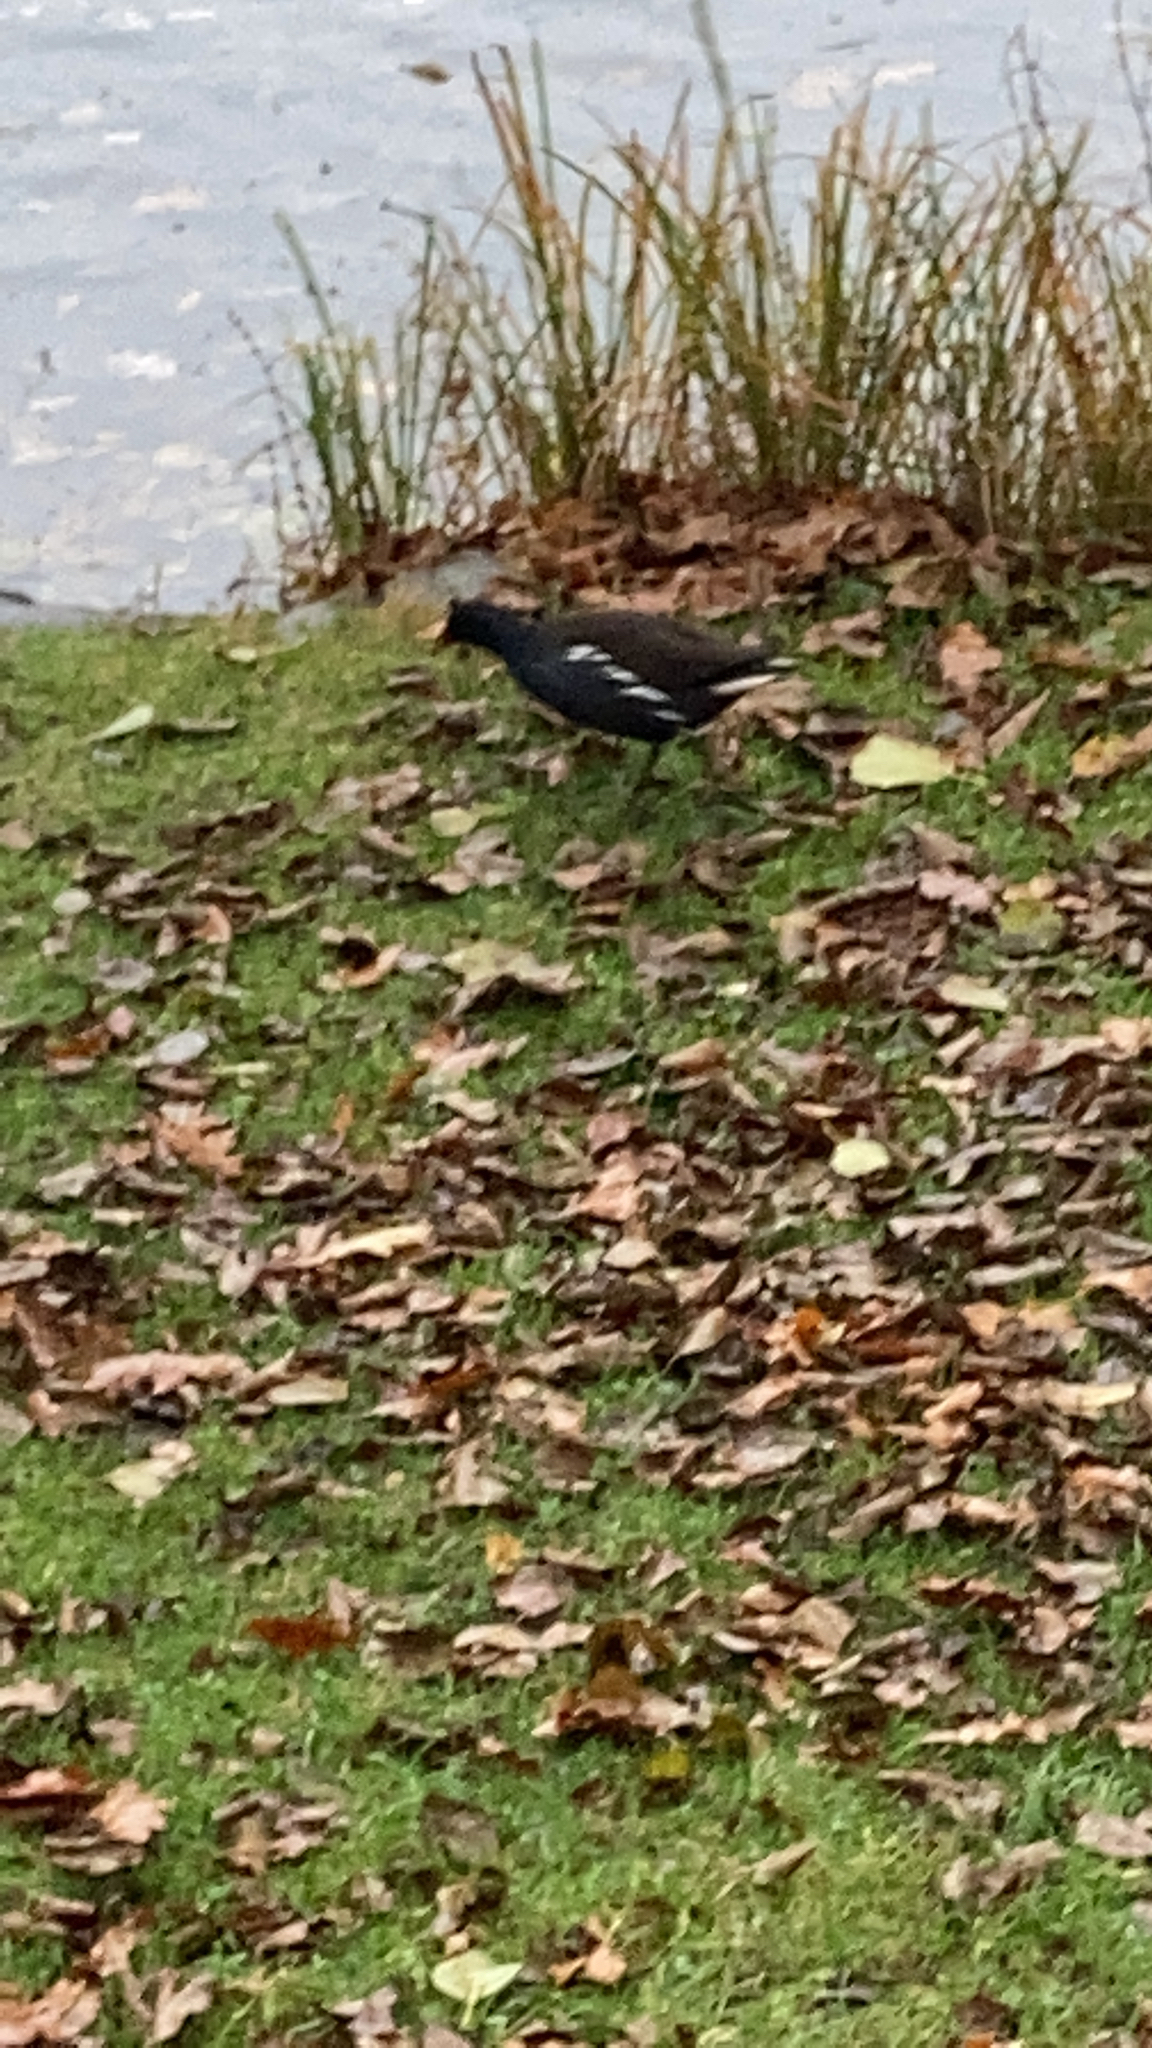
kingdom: Animalia
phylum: Chordata
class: Aves
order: Gruiformes
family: Rallidae
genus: Gallinula
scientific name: Gallinula chloropus
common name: Common moorhen
